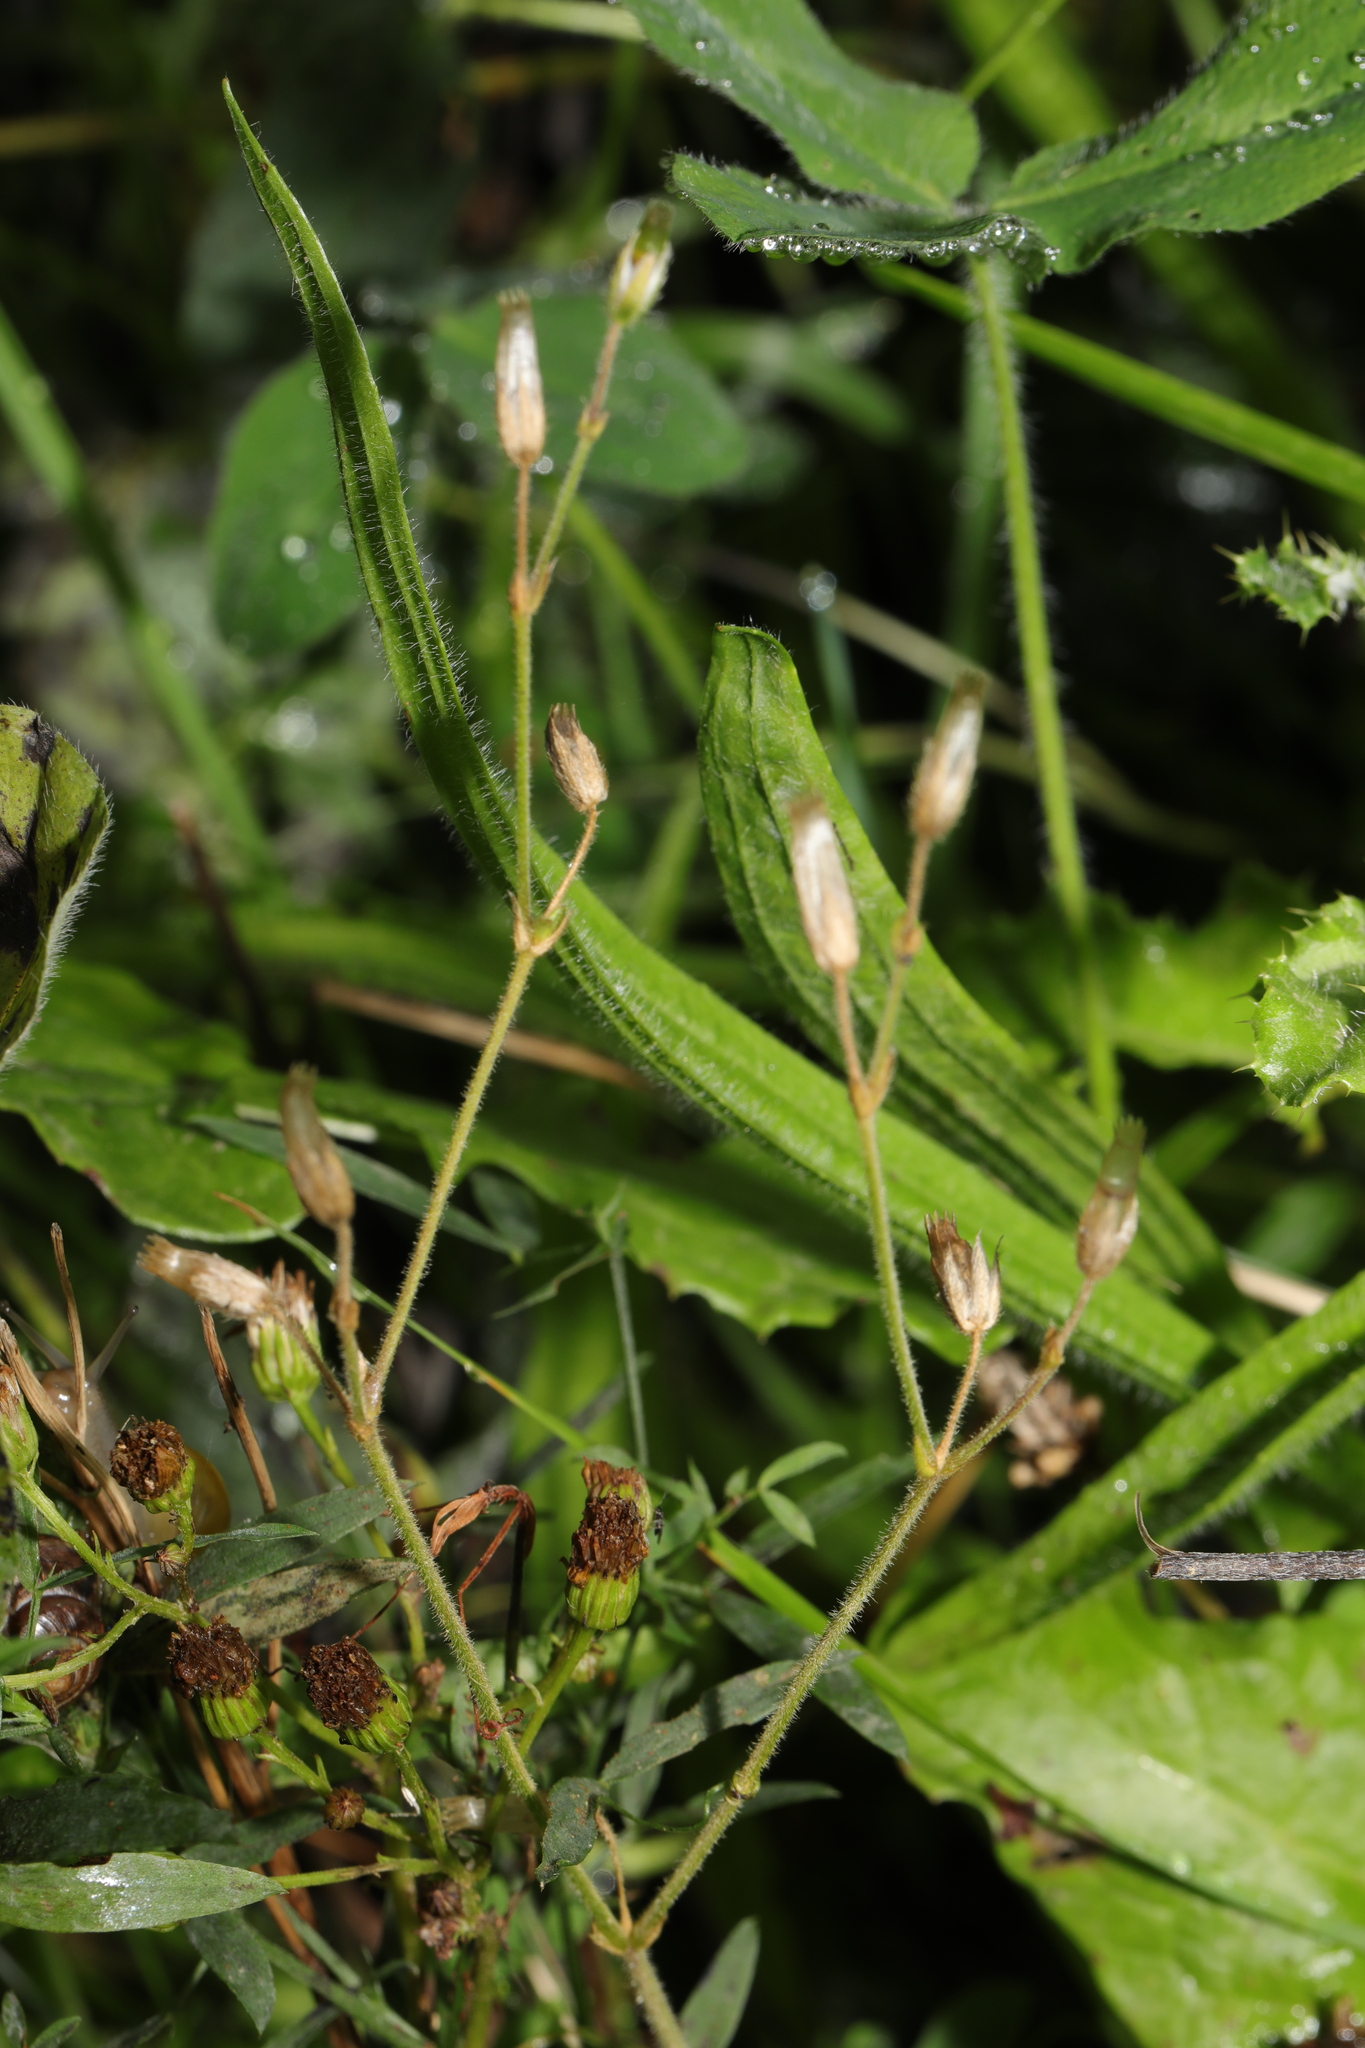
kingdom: Plantae
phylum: Tracheophyta
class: Magnoliopsida
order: Caryophyllales
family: Caryophyllaceae
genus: Cerastium
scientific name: Cerastium fontanum
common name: Common mouse-ear
